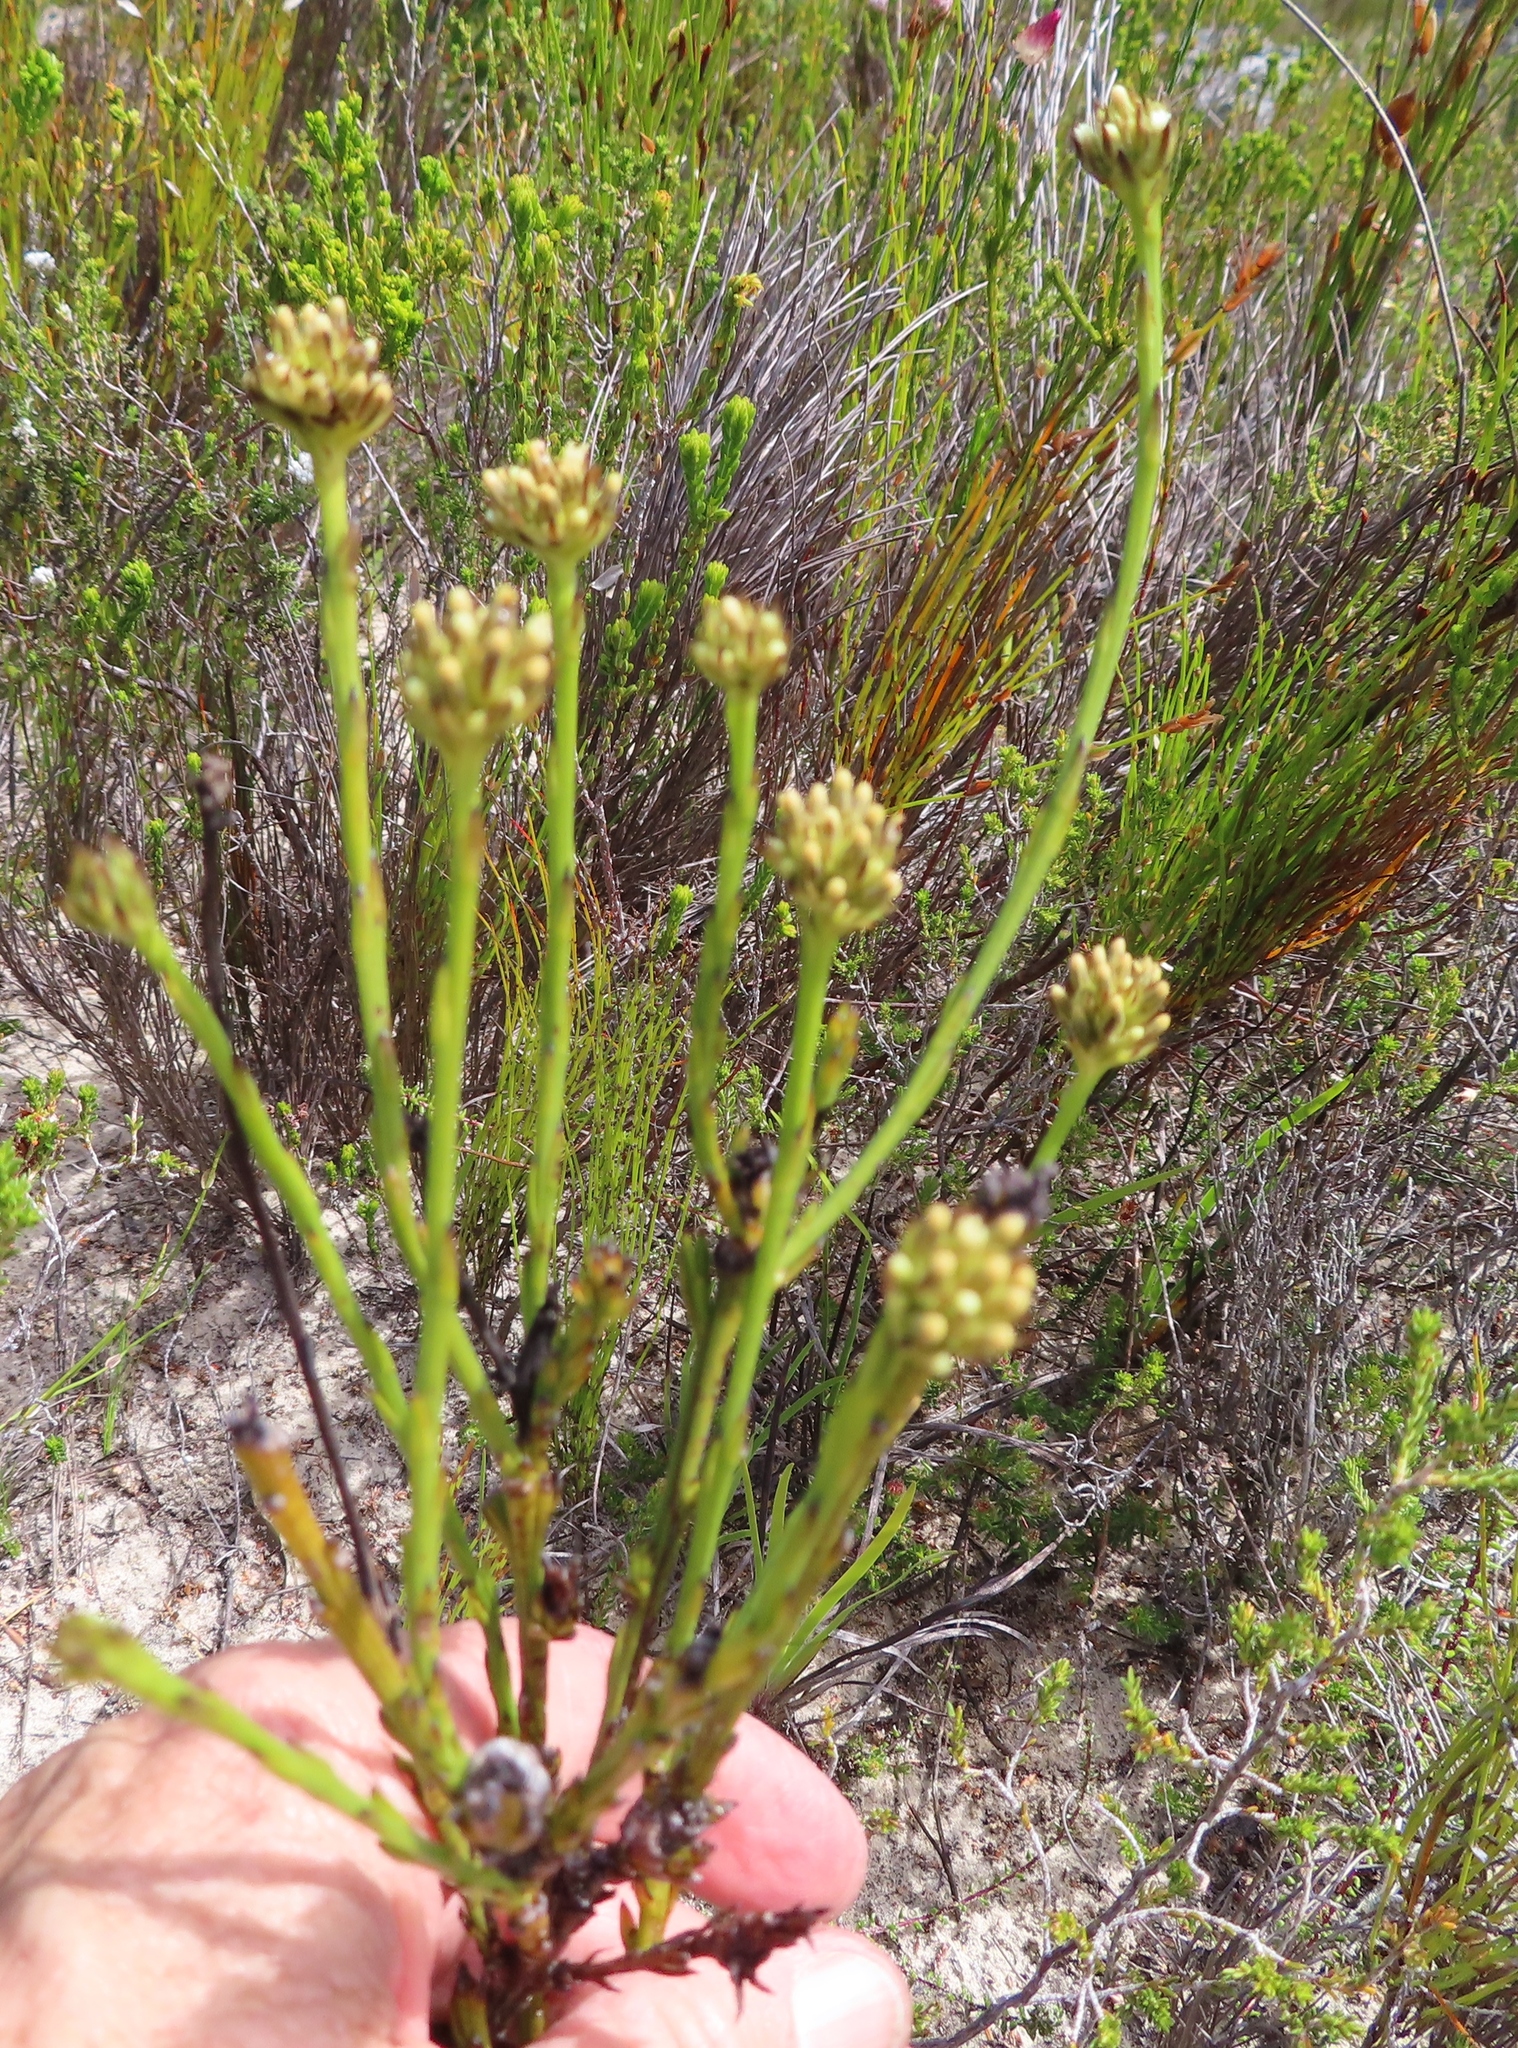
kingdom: Plantae
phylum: Tracheophyta
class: Magnoliopsida
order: Santalales
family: Thesiaceae
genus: Thesium
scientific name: Thesium spicatum
